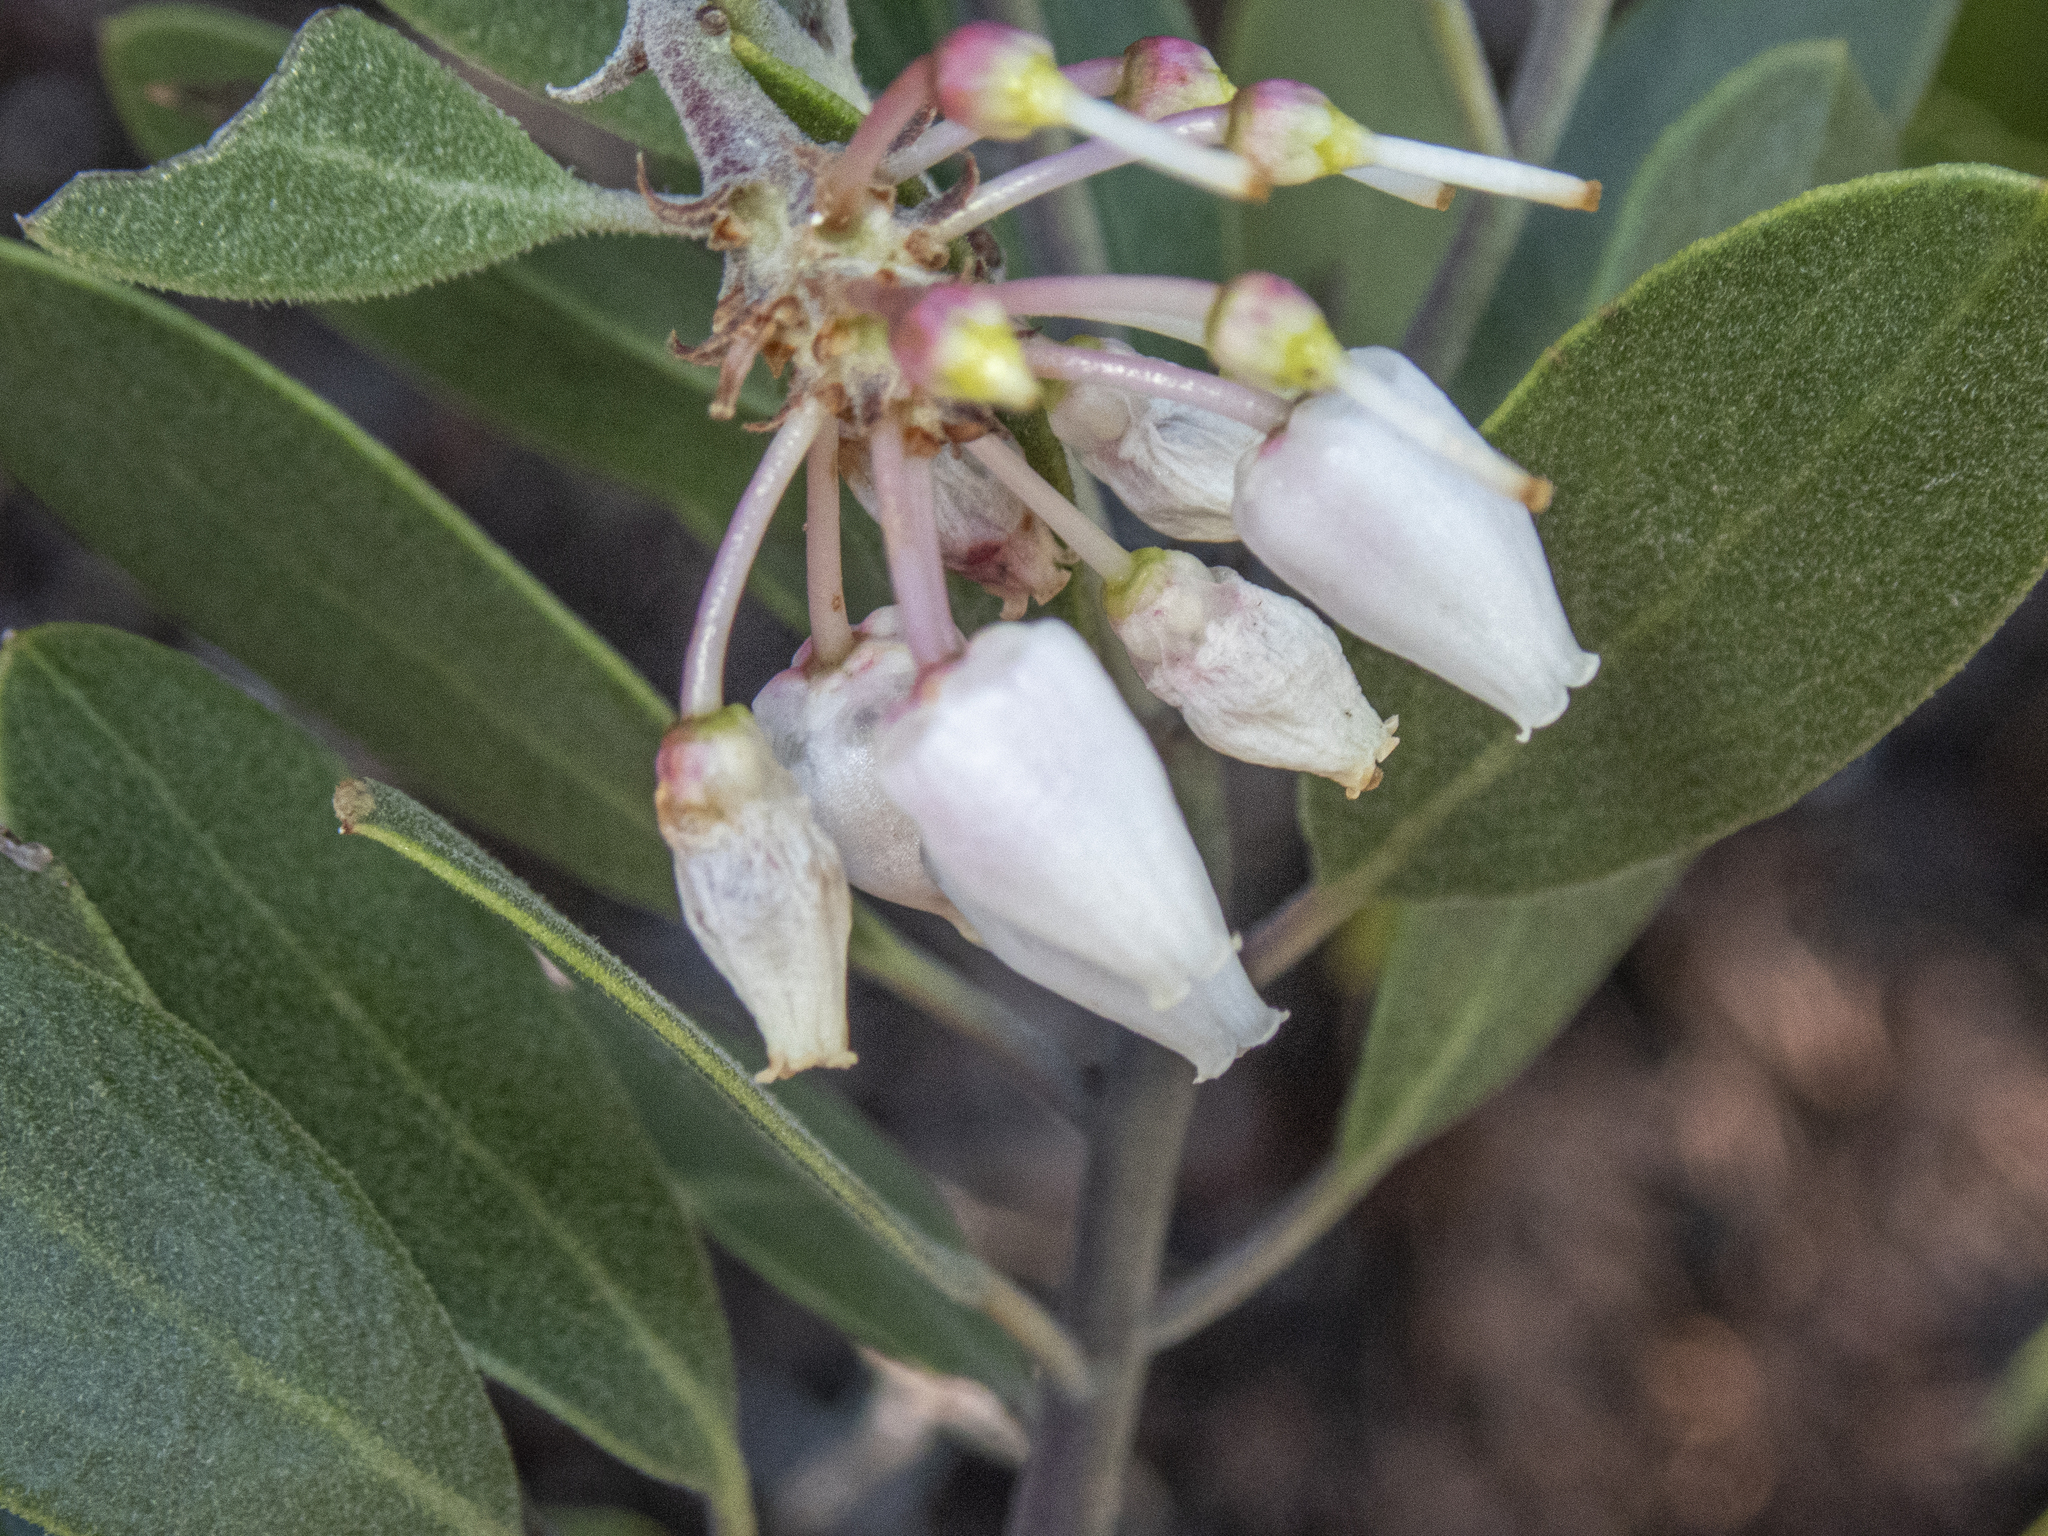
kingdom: Plantae
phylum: Tracheophyta
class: Magnoliopsida
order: Ericales
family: Ericaceae
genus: Arctostaphylos
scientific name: Arctostaphylos pungens
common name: Mexican manzanita
